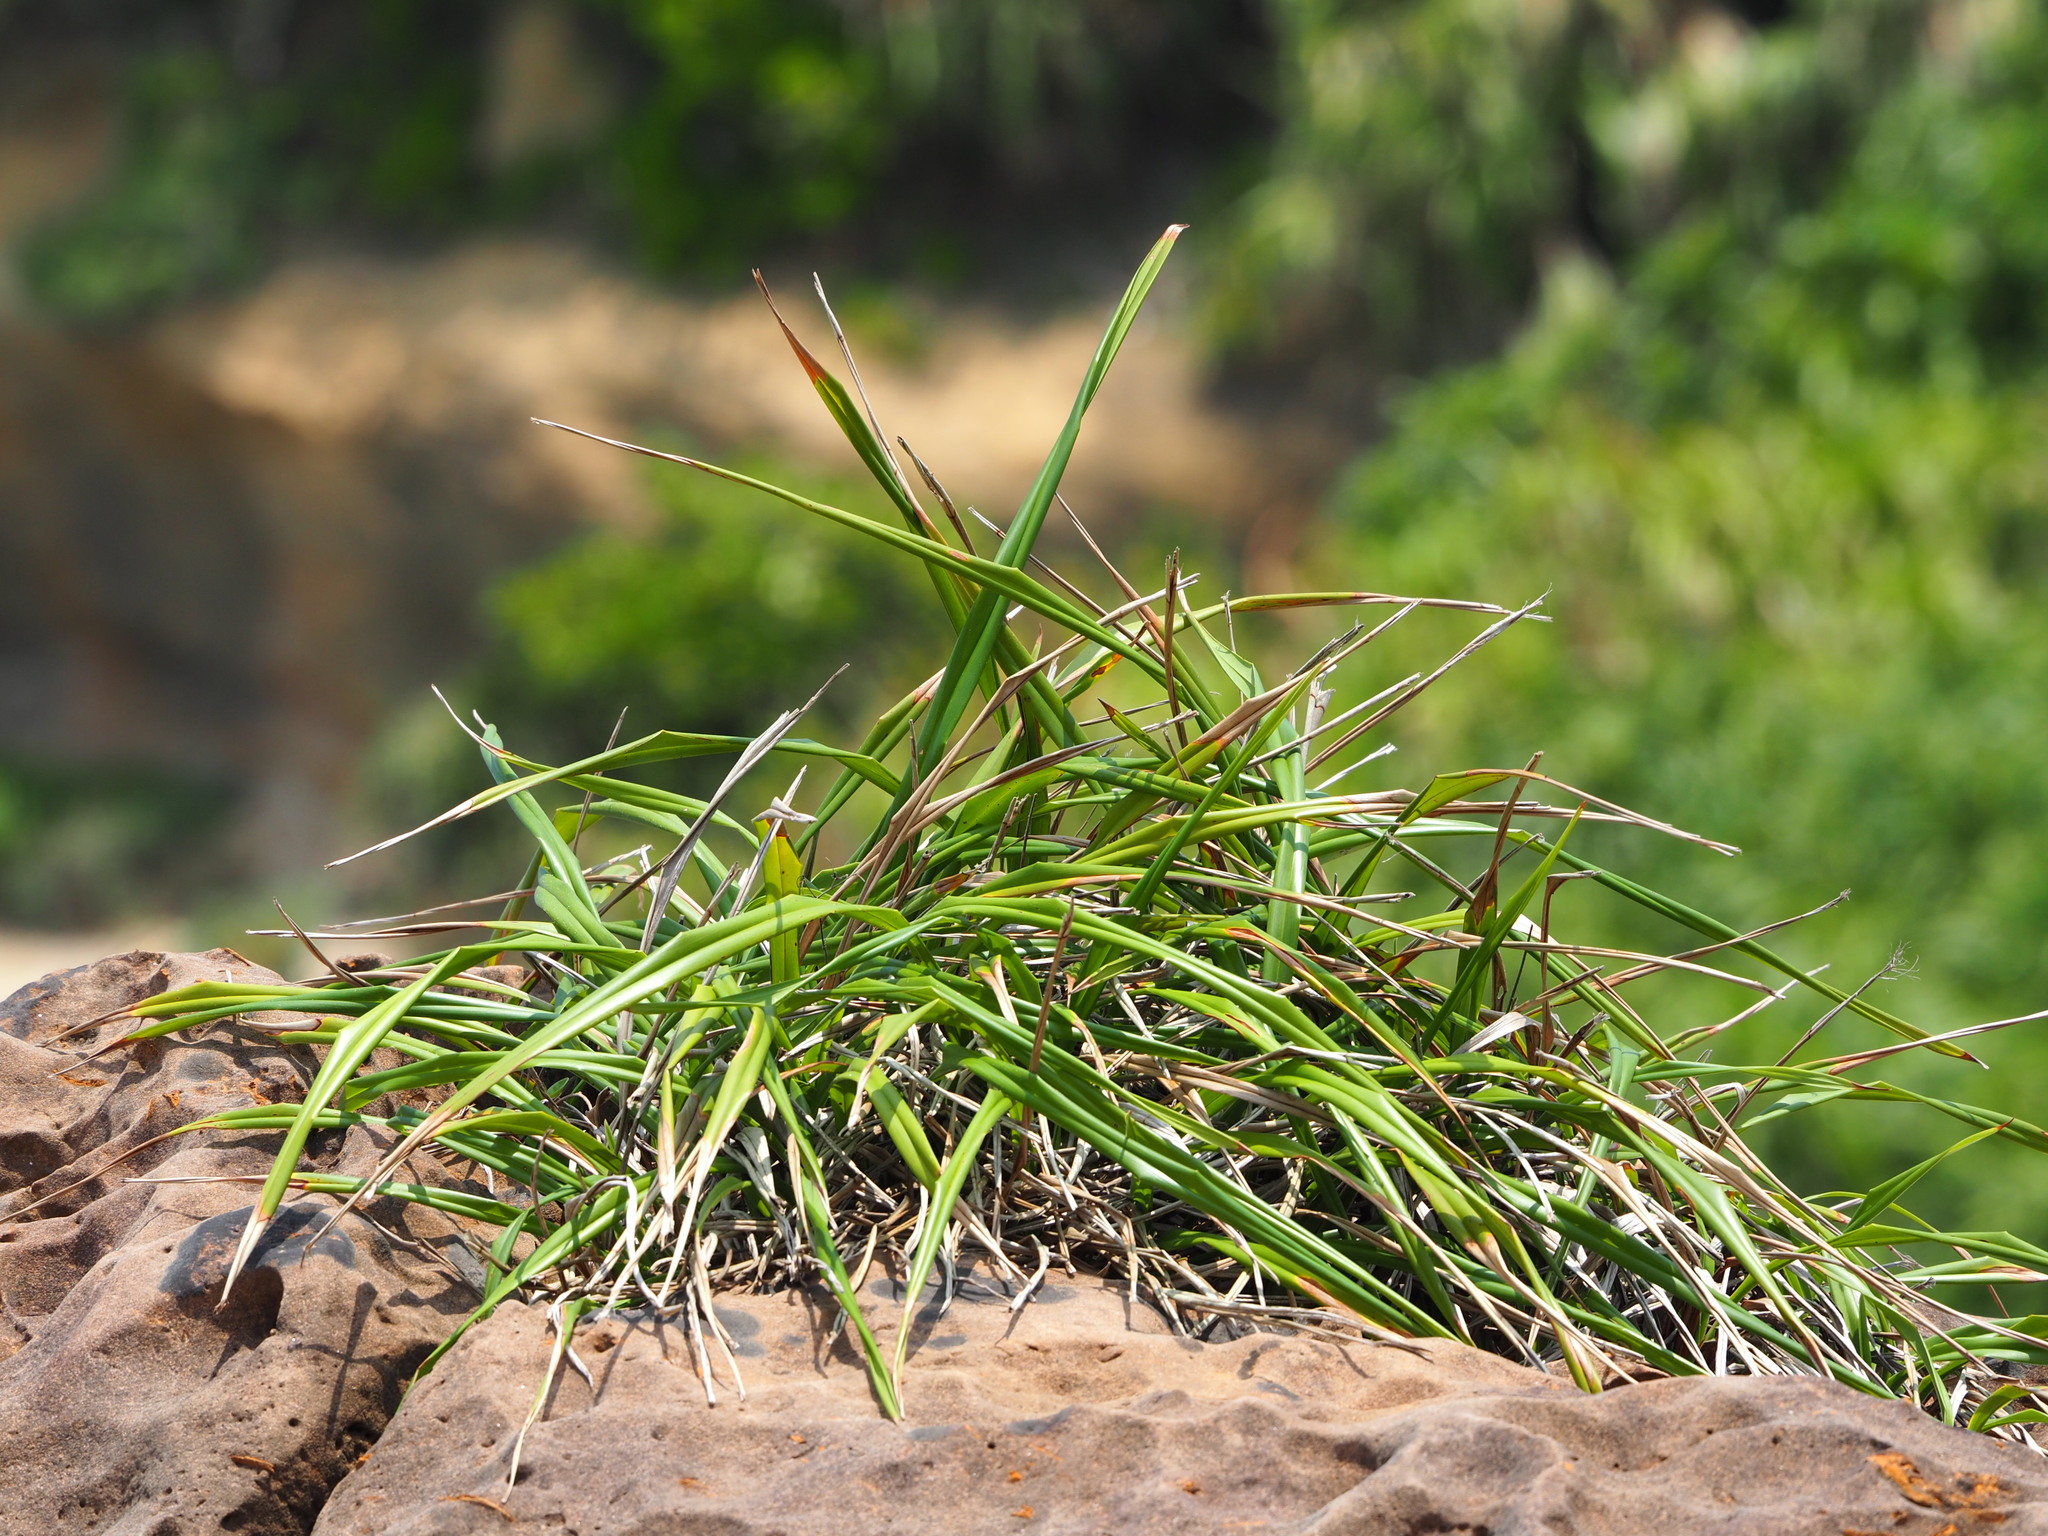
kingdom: Plantae
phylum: Tracheophyta
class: Liliopsida
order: Asparagales
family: Asphodelaceae
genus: Dianella
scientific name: Dianella ensifolia
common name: New zealand lilyplant
